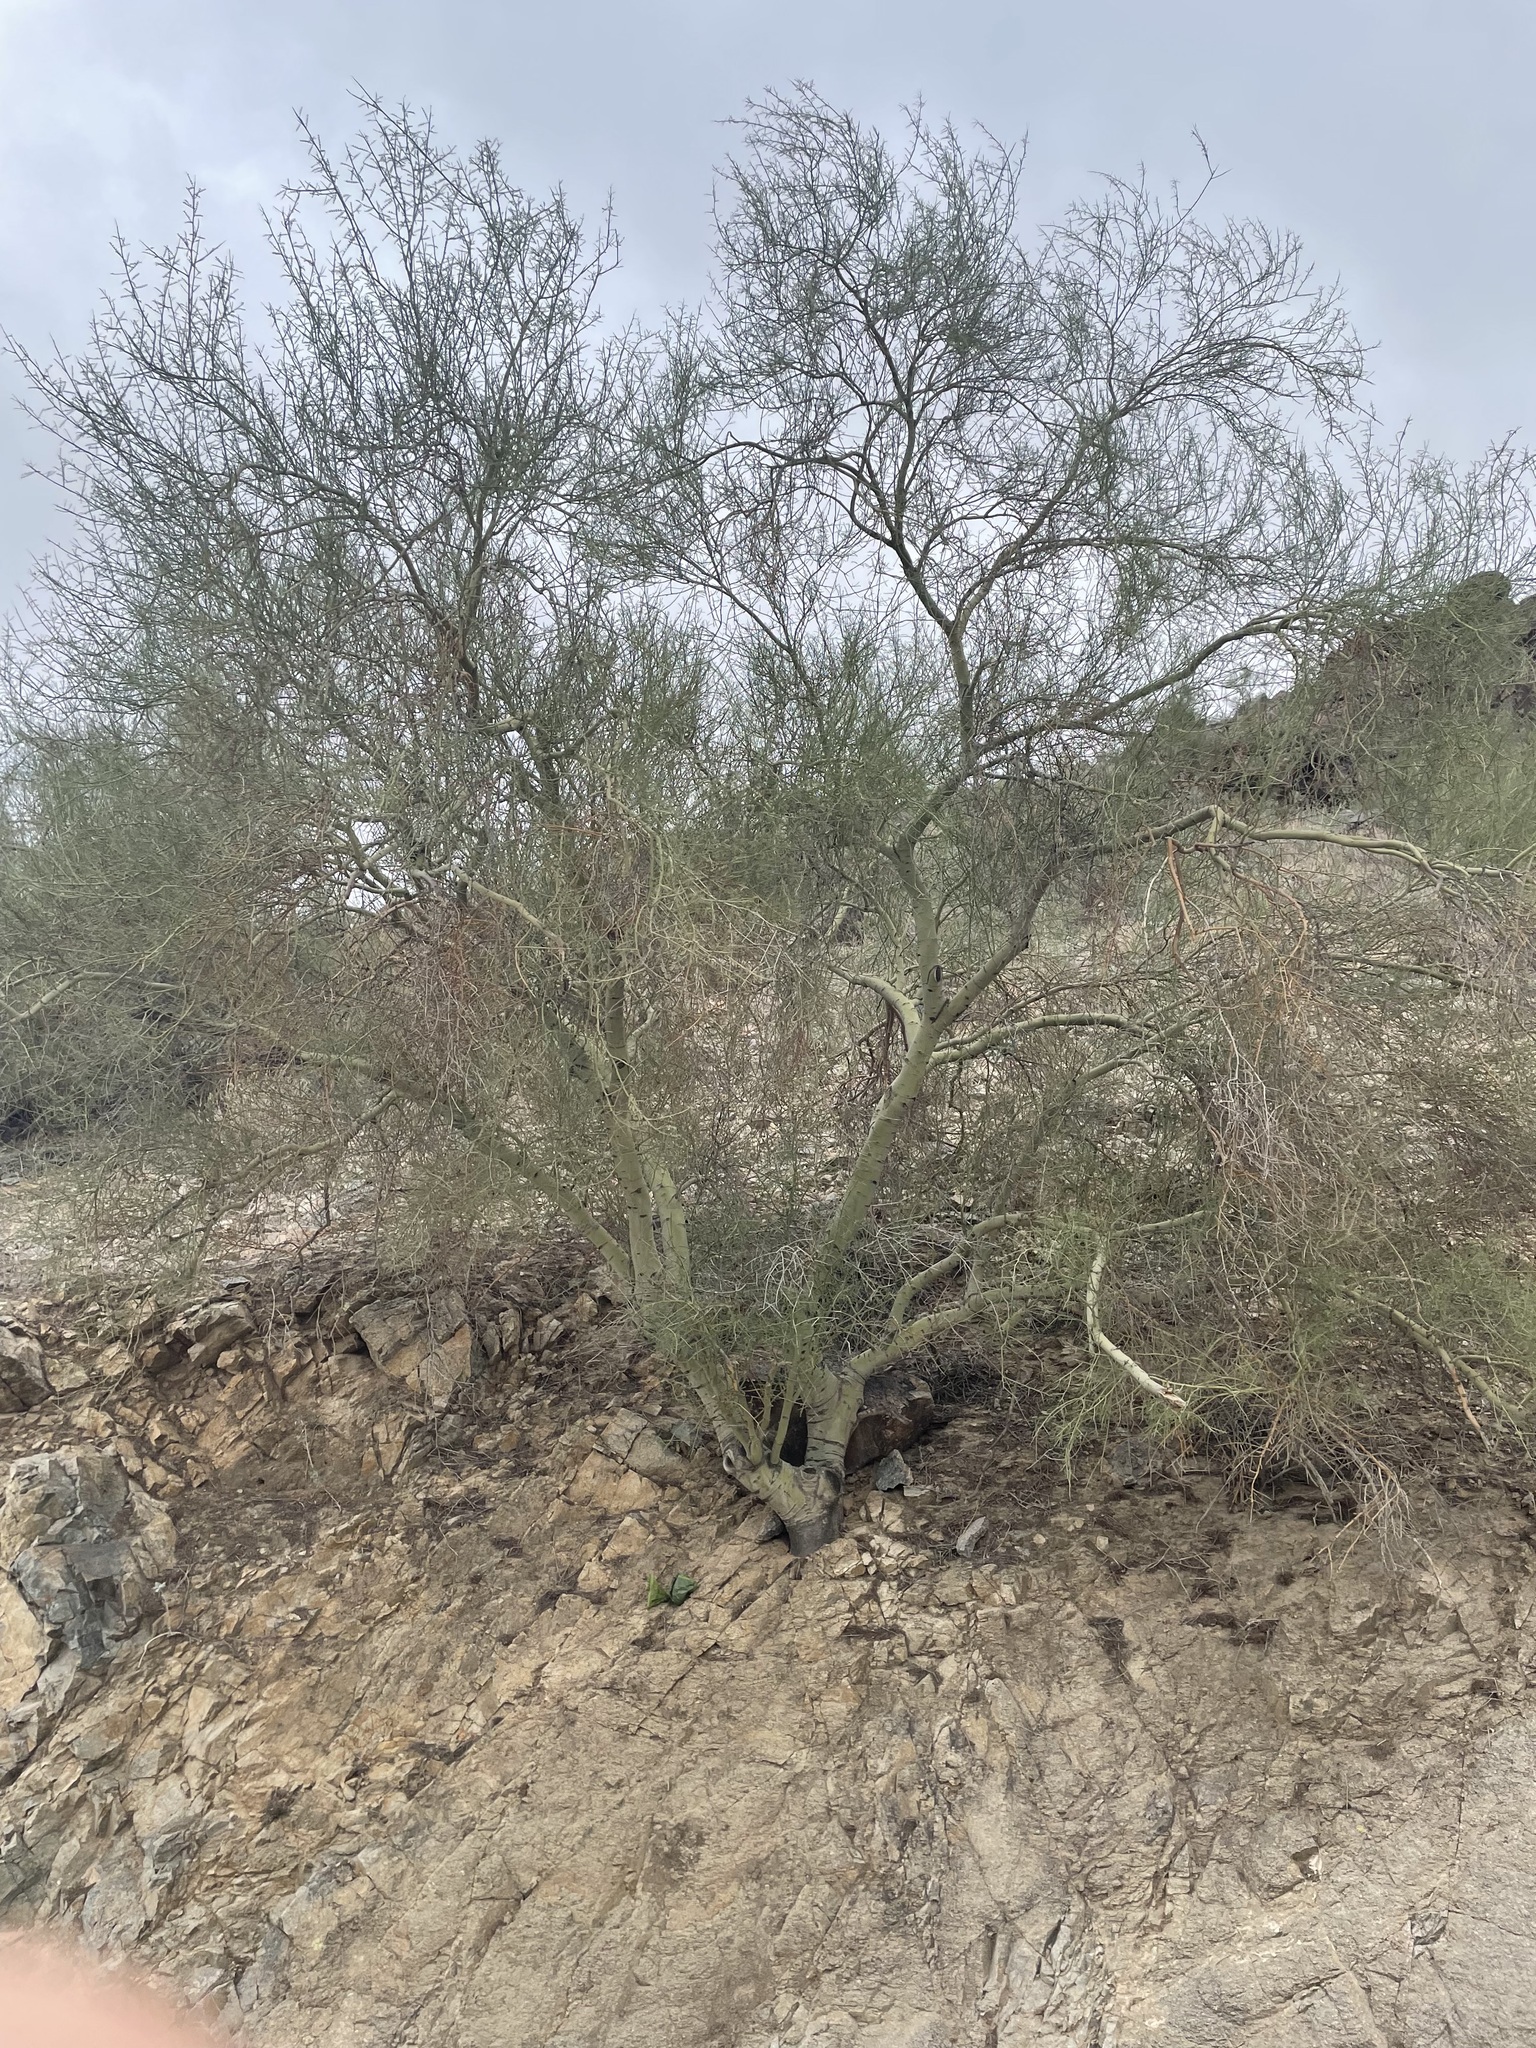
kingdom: Plantae
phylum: Tracheophyta
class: Magnoliopsida
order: Fabales
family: Fabaceae
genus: Parkinsonia
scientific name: Parkinsonia microphylla
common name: Yellow paloverde
